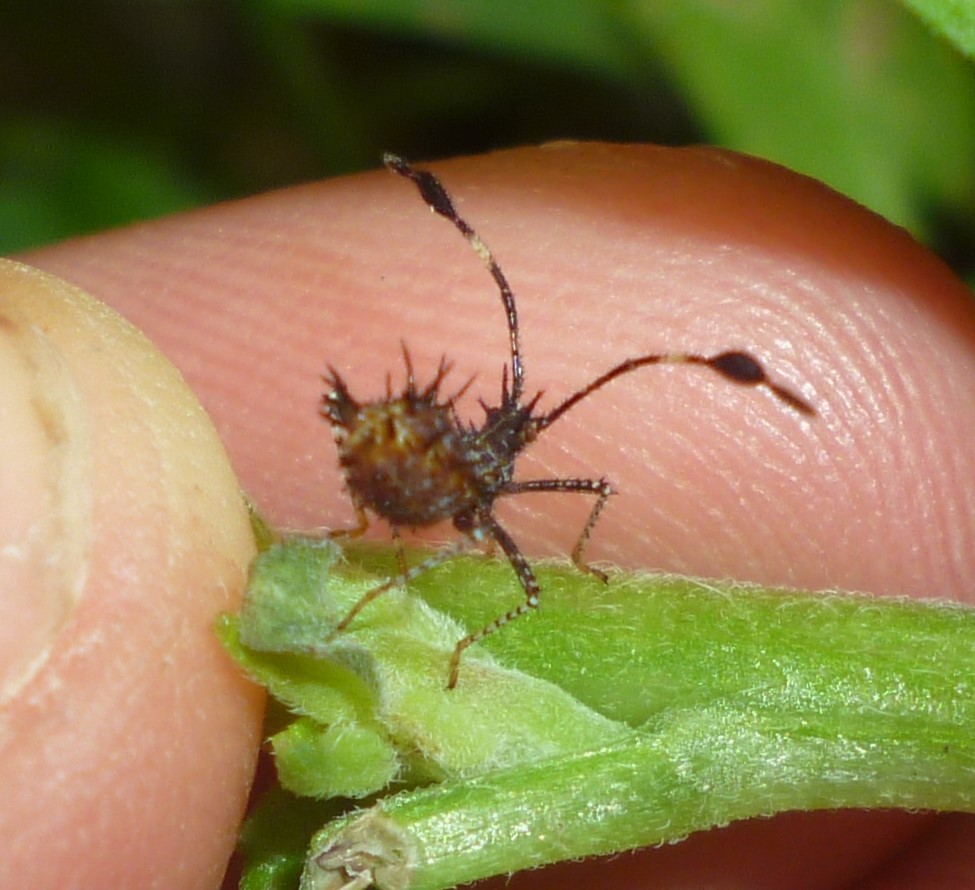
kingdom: Animalia
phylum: Arthropoda
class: Insecta
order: Hemiptera
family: Coreidae
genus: Euthochtha
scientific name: Euthochtha galeator
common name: Helmeted squash bug
